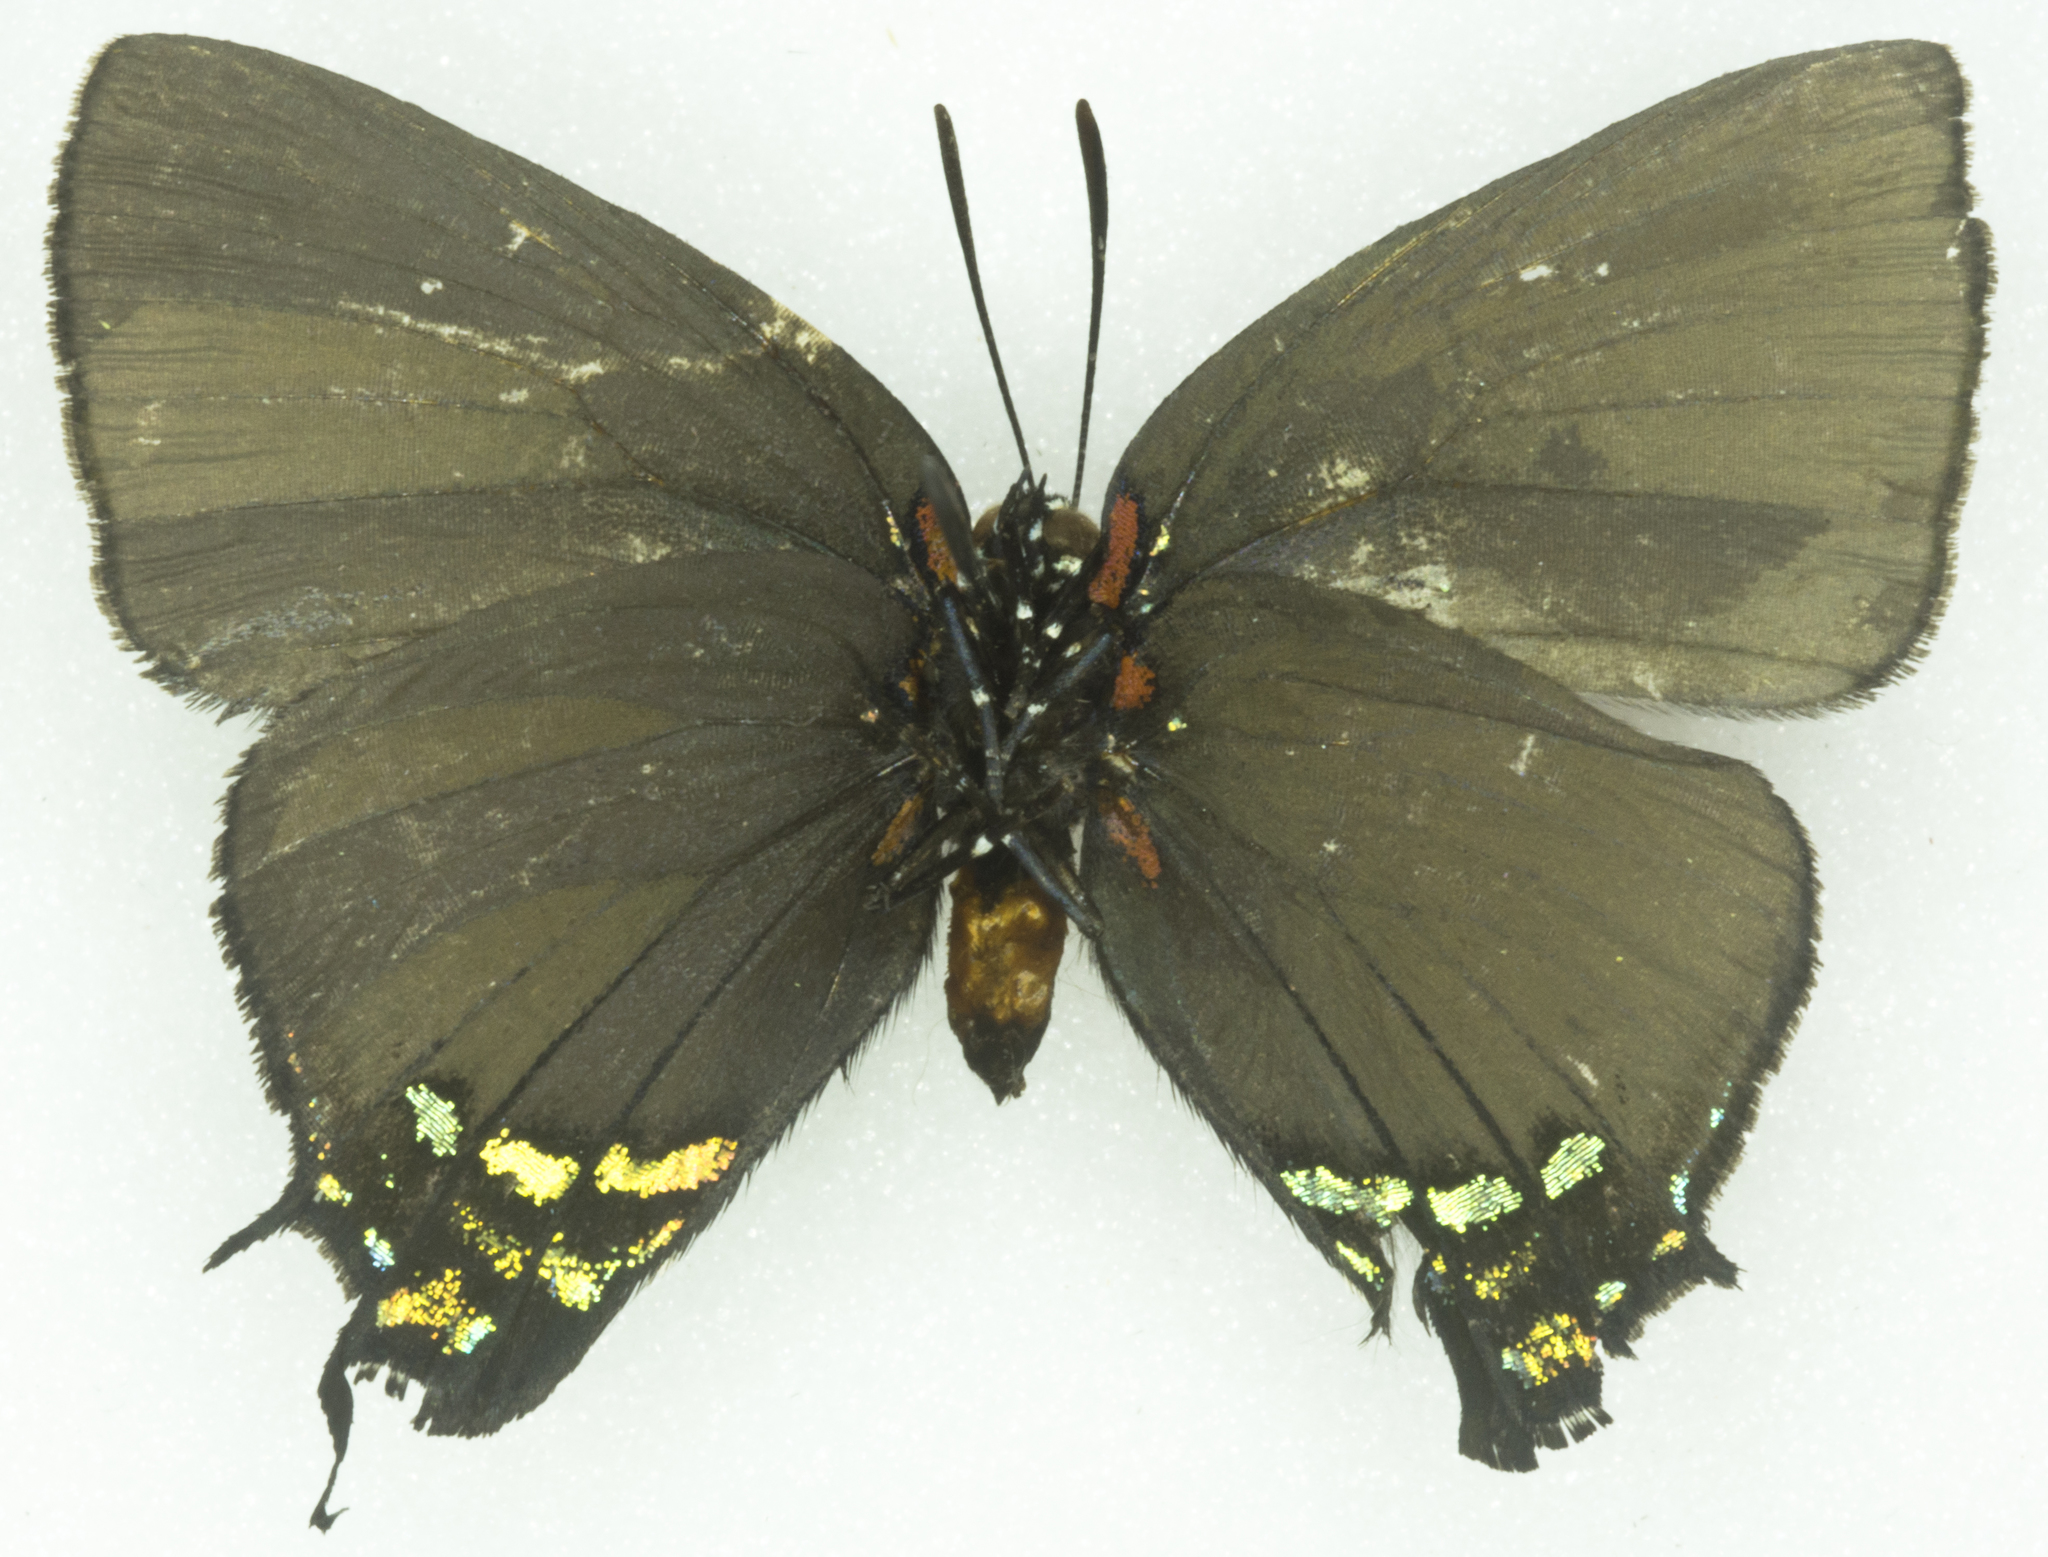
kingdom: Animalia
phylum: Arthropoda
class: Insecta
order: Lepidoptera
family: Lycaenidae
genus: Atlides
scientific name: Atlides halesus
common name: Great purple hairstreak
